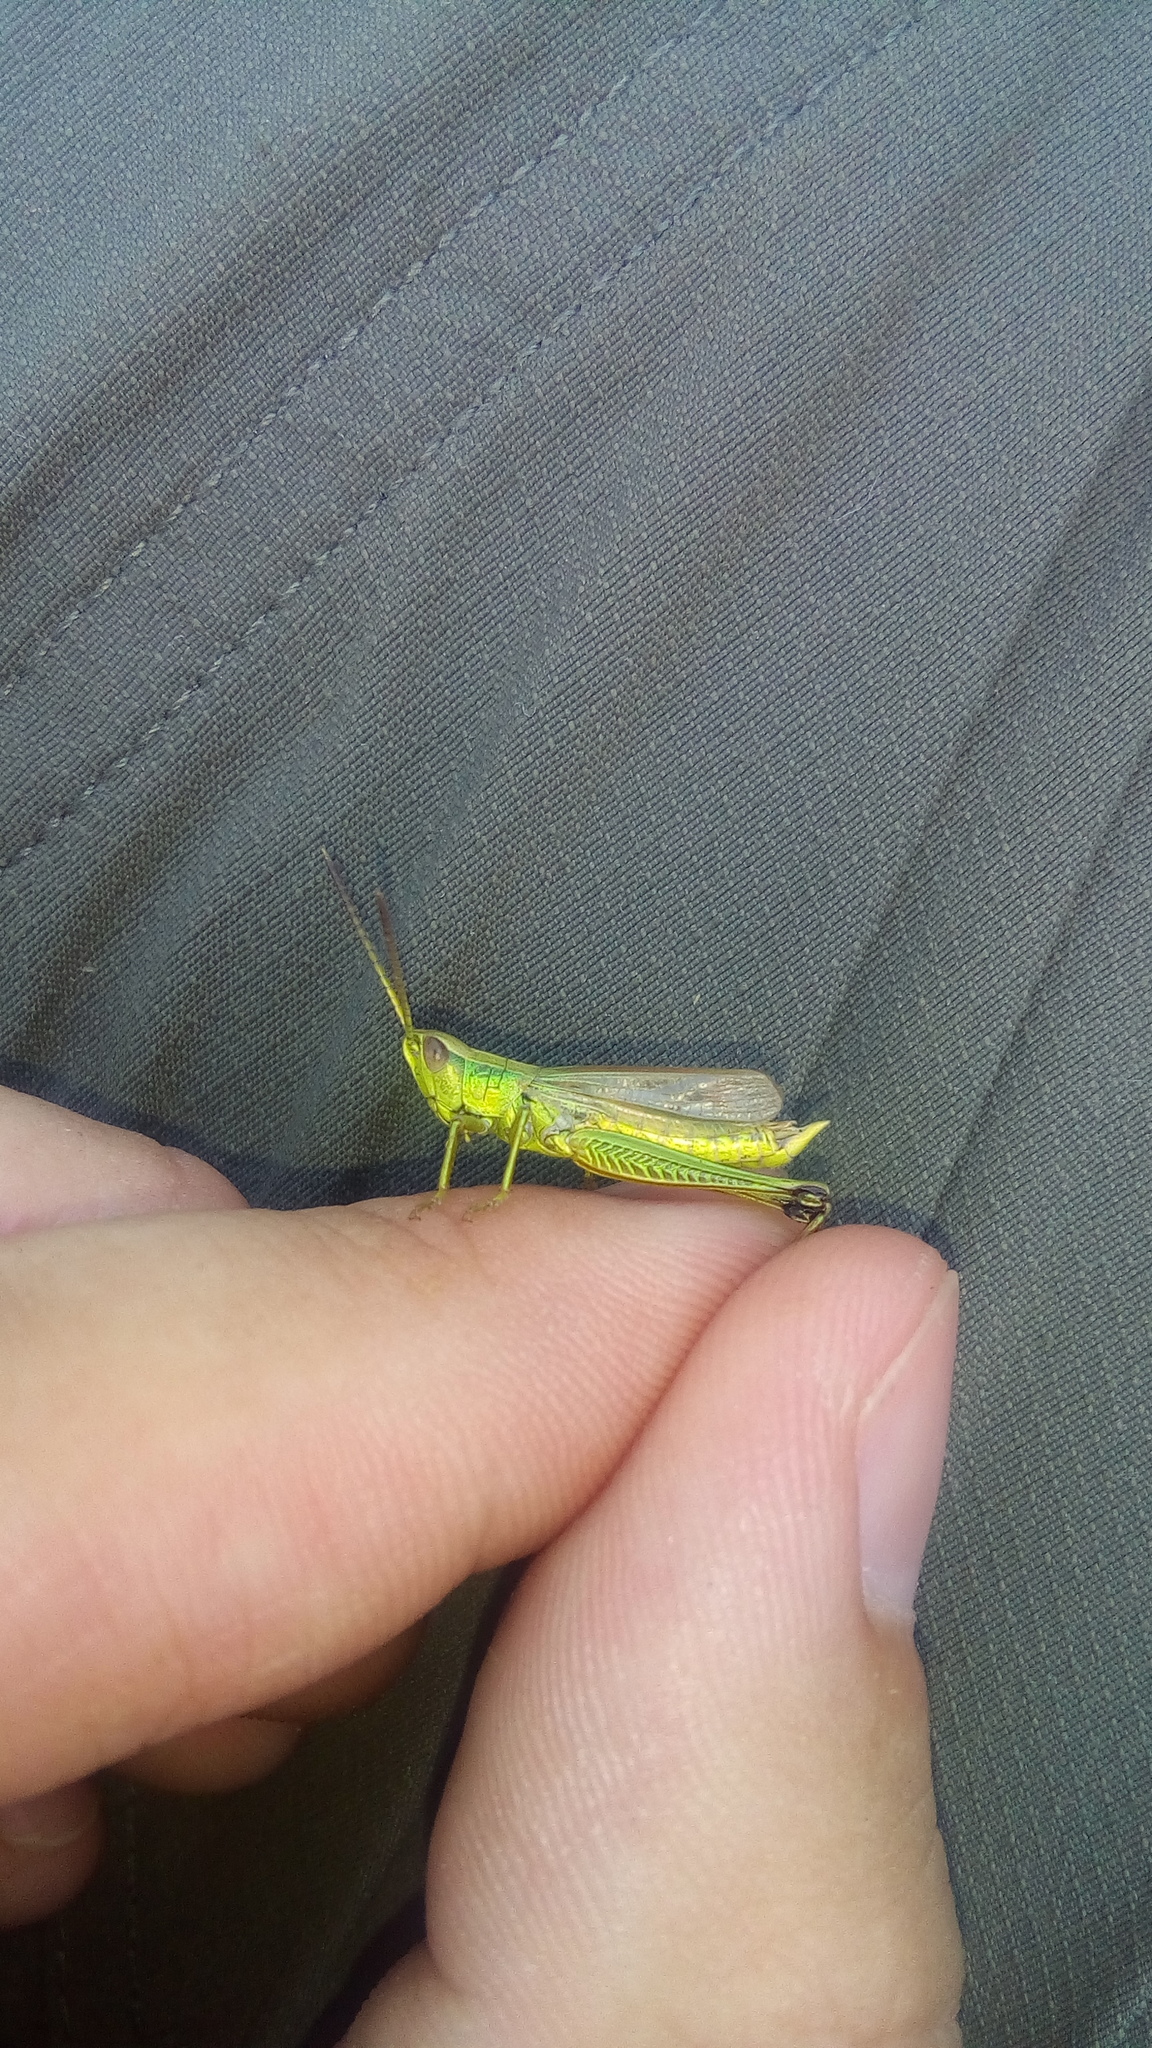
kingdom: Animalia
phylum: Arthropoda
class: Insecta
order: Orthoptera
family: Acrididae
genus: Chrysochraon
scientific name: Chrysochraon dispar
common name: Large gold grasshopper
